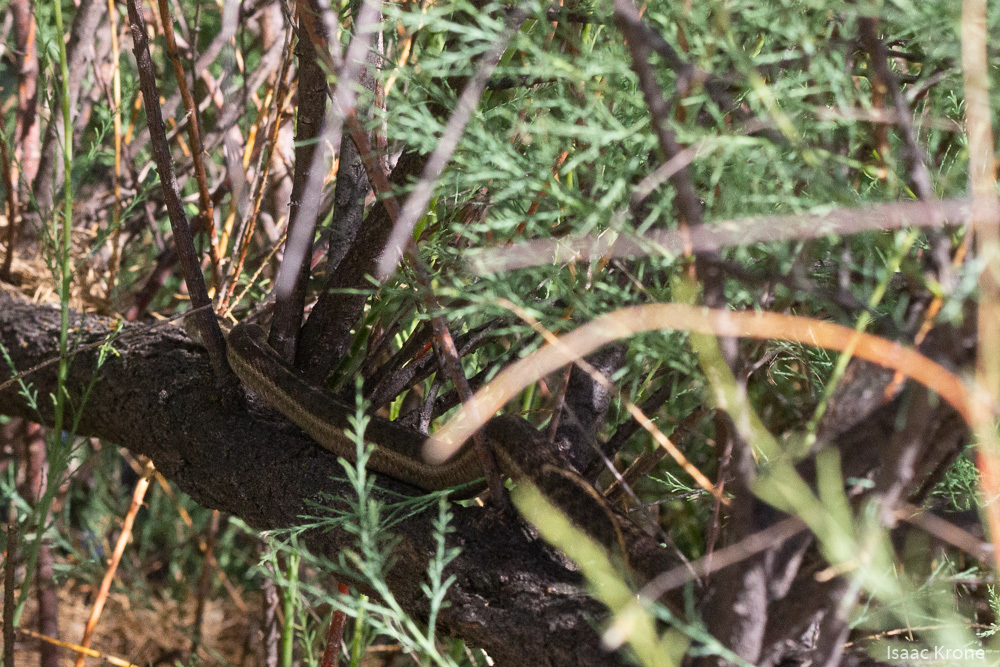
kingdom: Animalia
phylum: Chordata
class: Squamata
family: Colubridae
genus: Thamnophis
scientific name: Thamnophis elegans
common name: Western terrestrial garter snake
